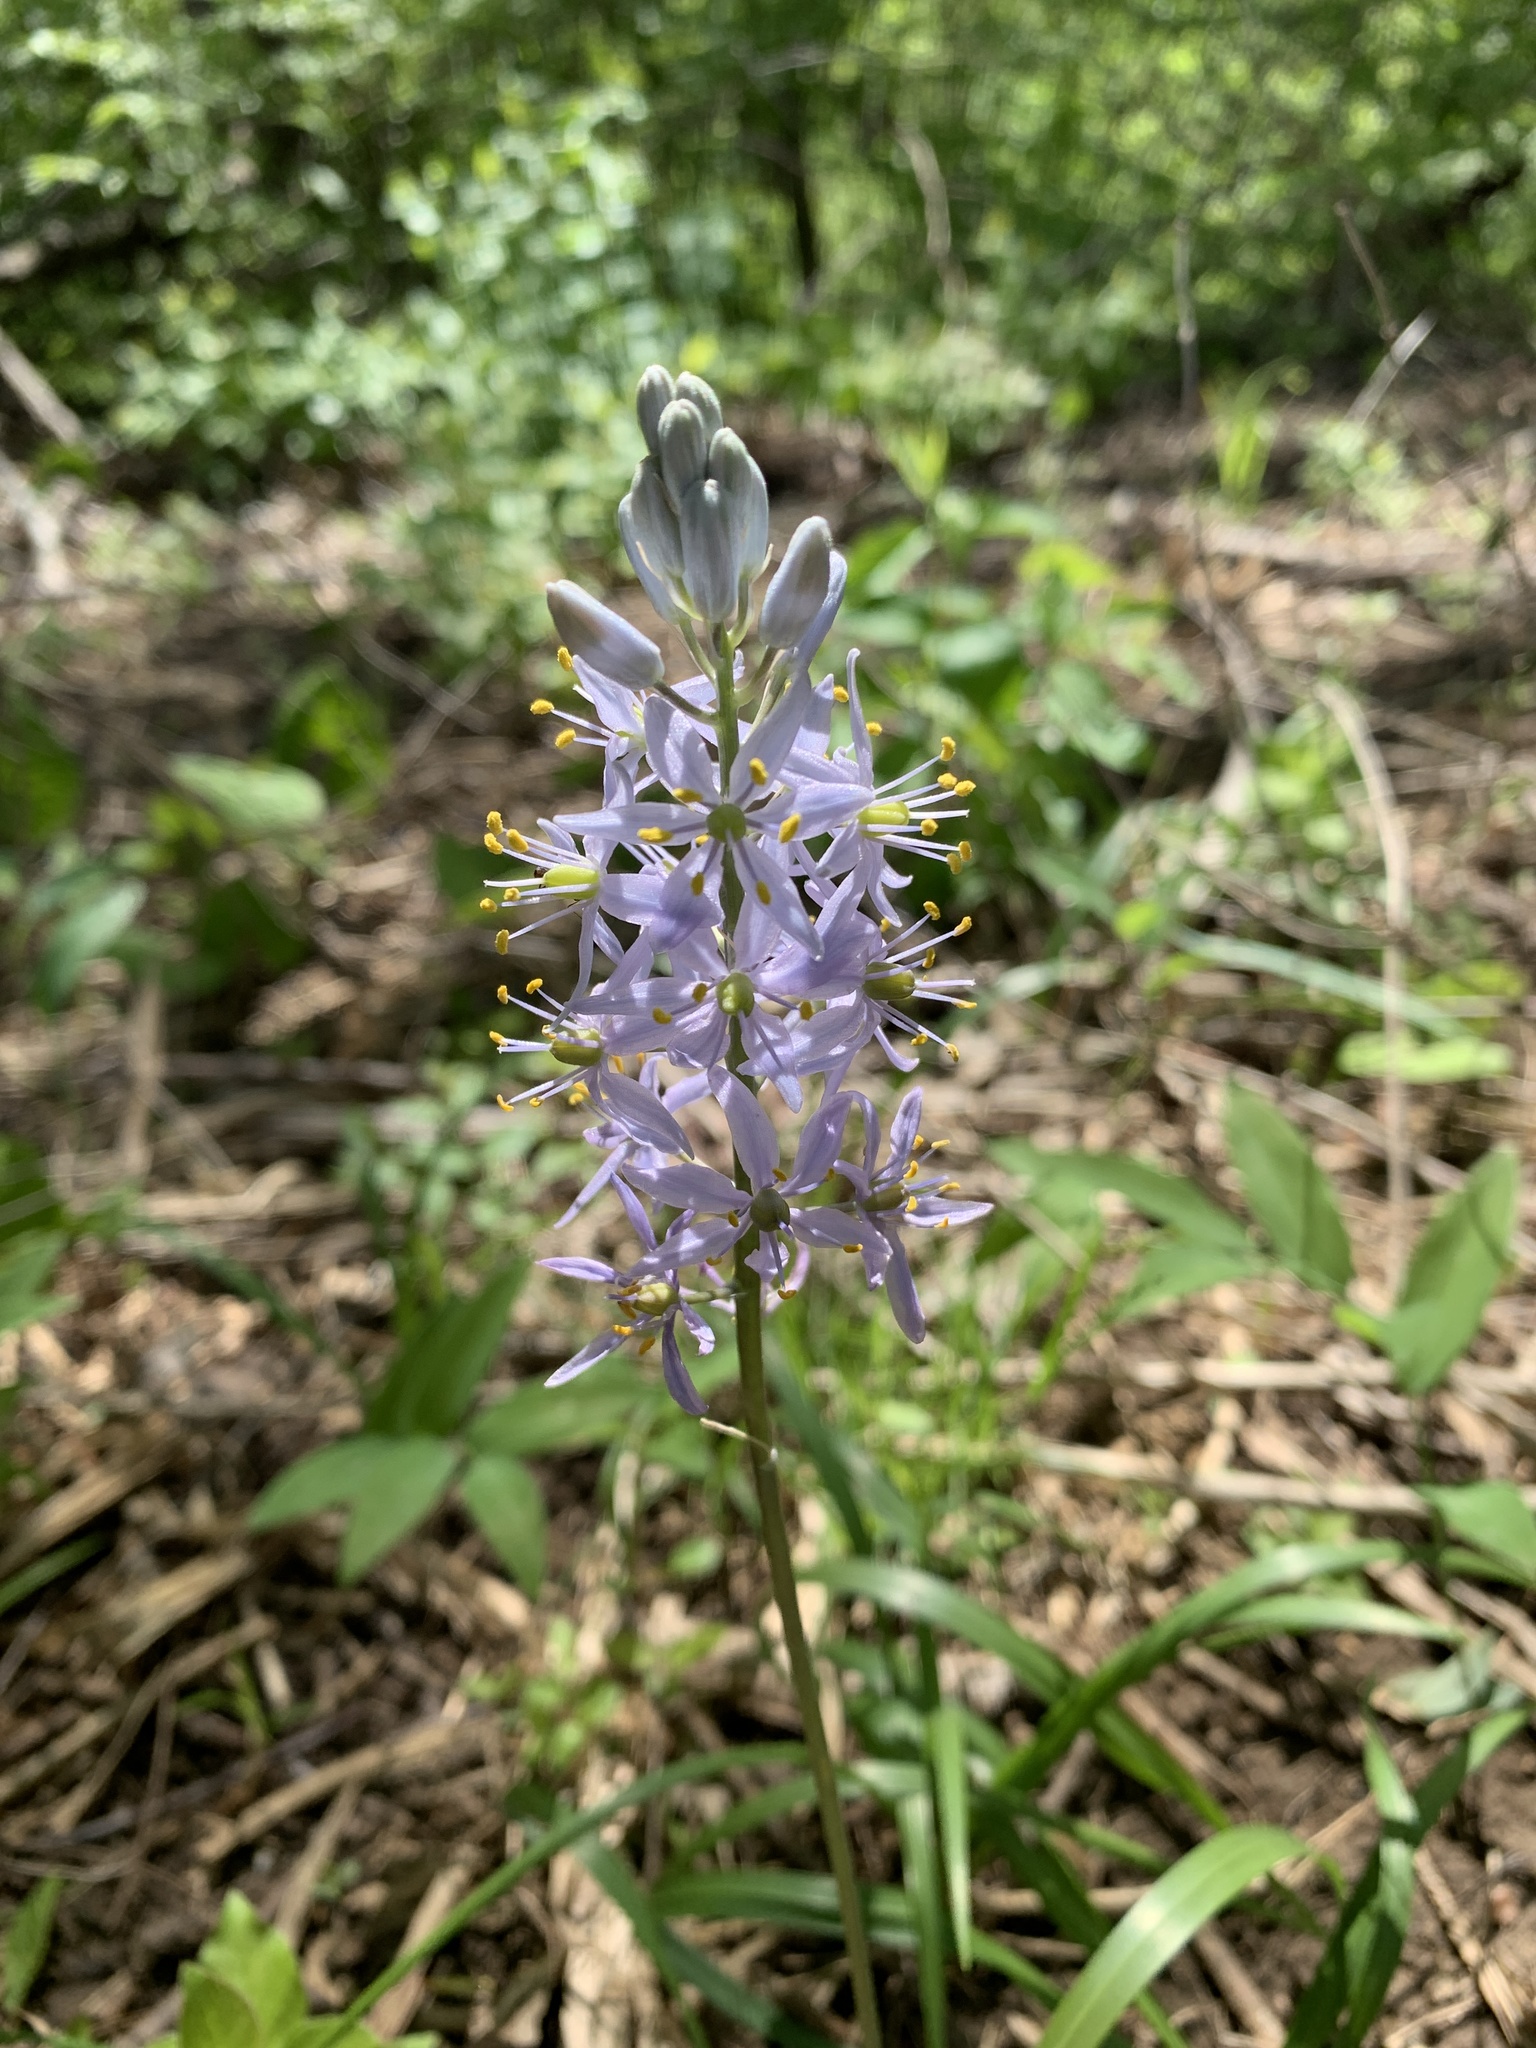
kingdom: Plantae
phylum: Tracheophyta
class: Liliopsida
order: Asparagales
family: Asparagaceae
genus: Camassia
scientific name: Camassia scilloides
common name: Wild hyacinth
